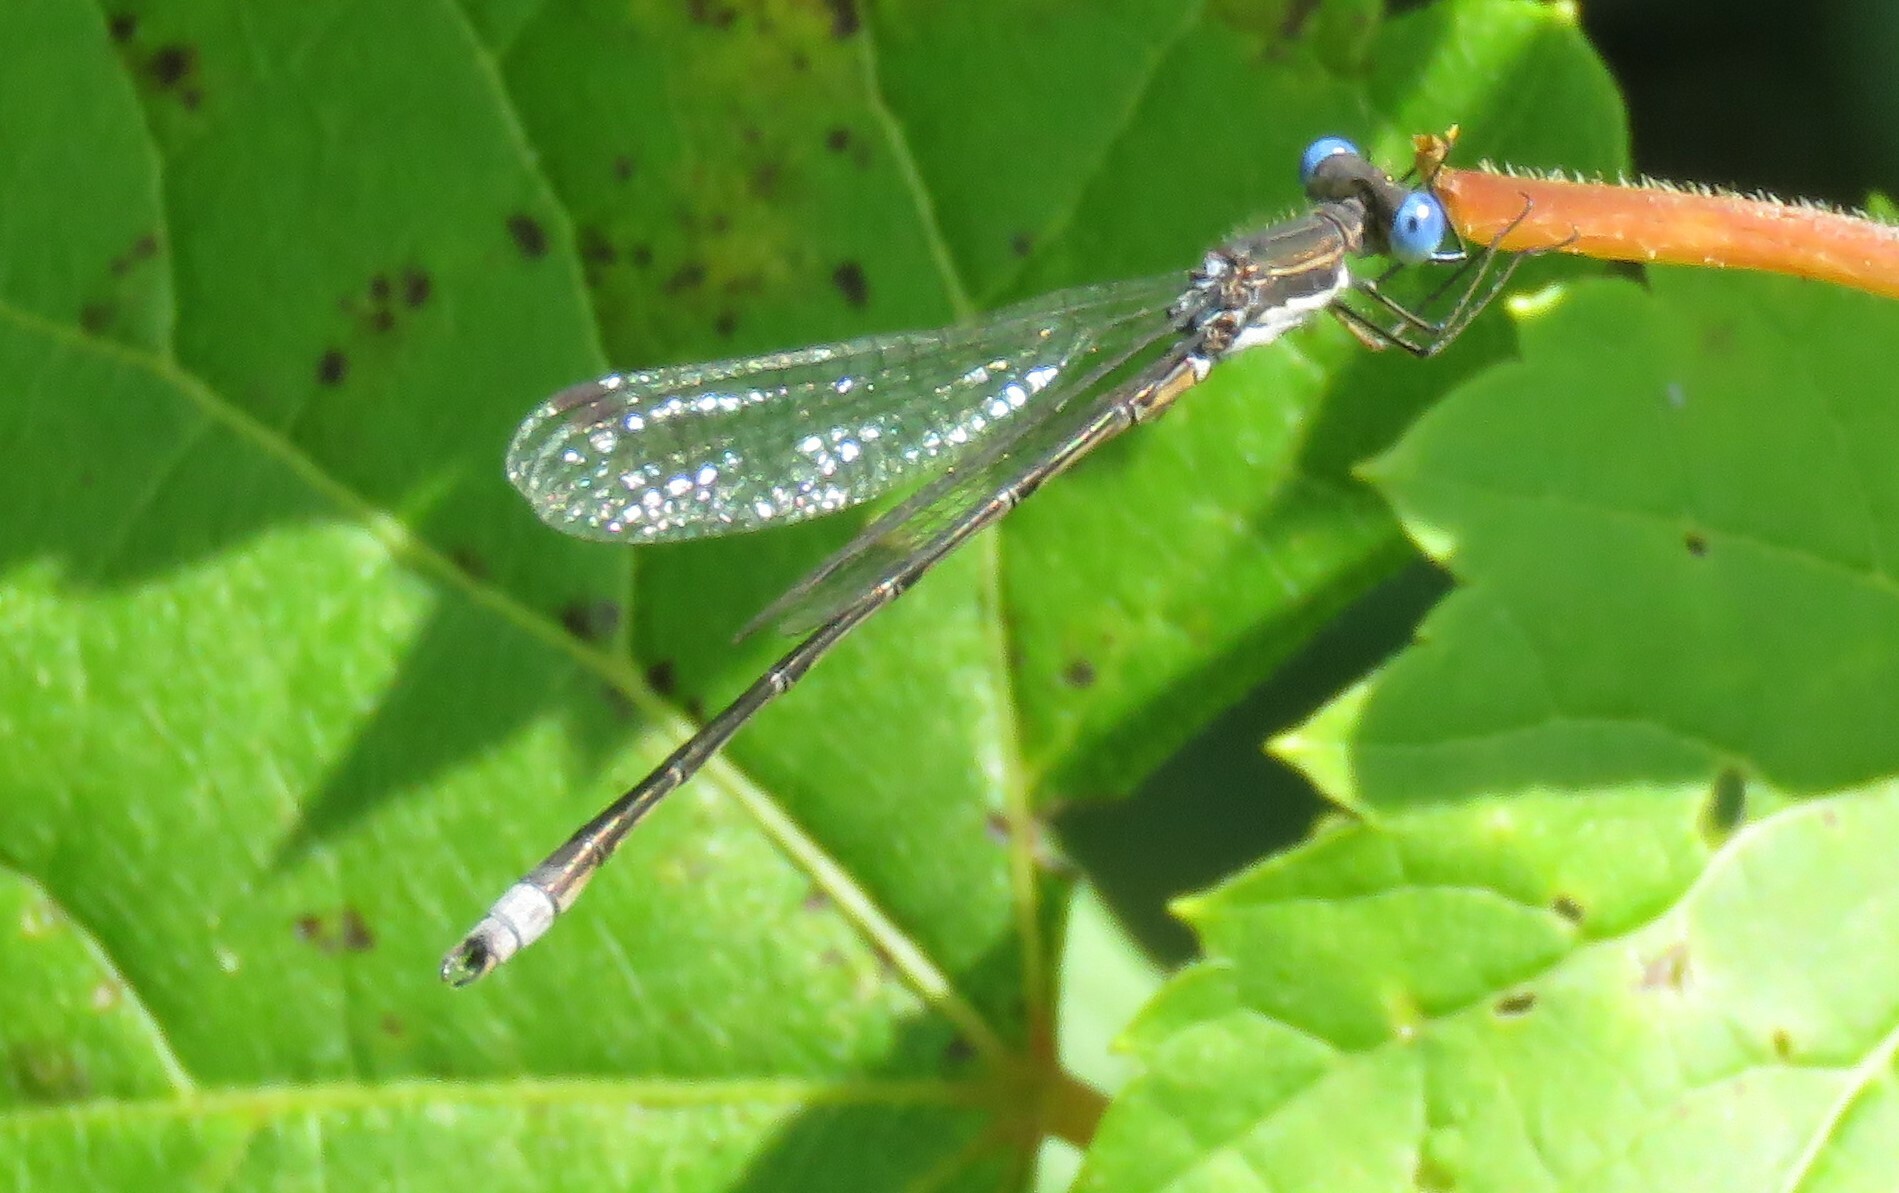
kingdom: Animalia
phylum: Arthropoda
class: Insecta
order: Odonata
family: Lestidae
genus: Lestes
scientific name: Lestes congener
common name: Spotted spreadwing
